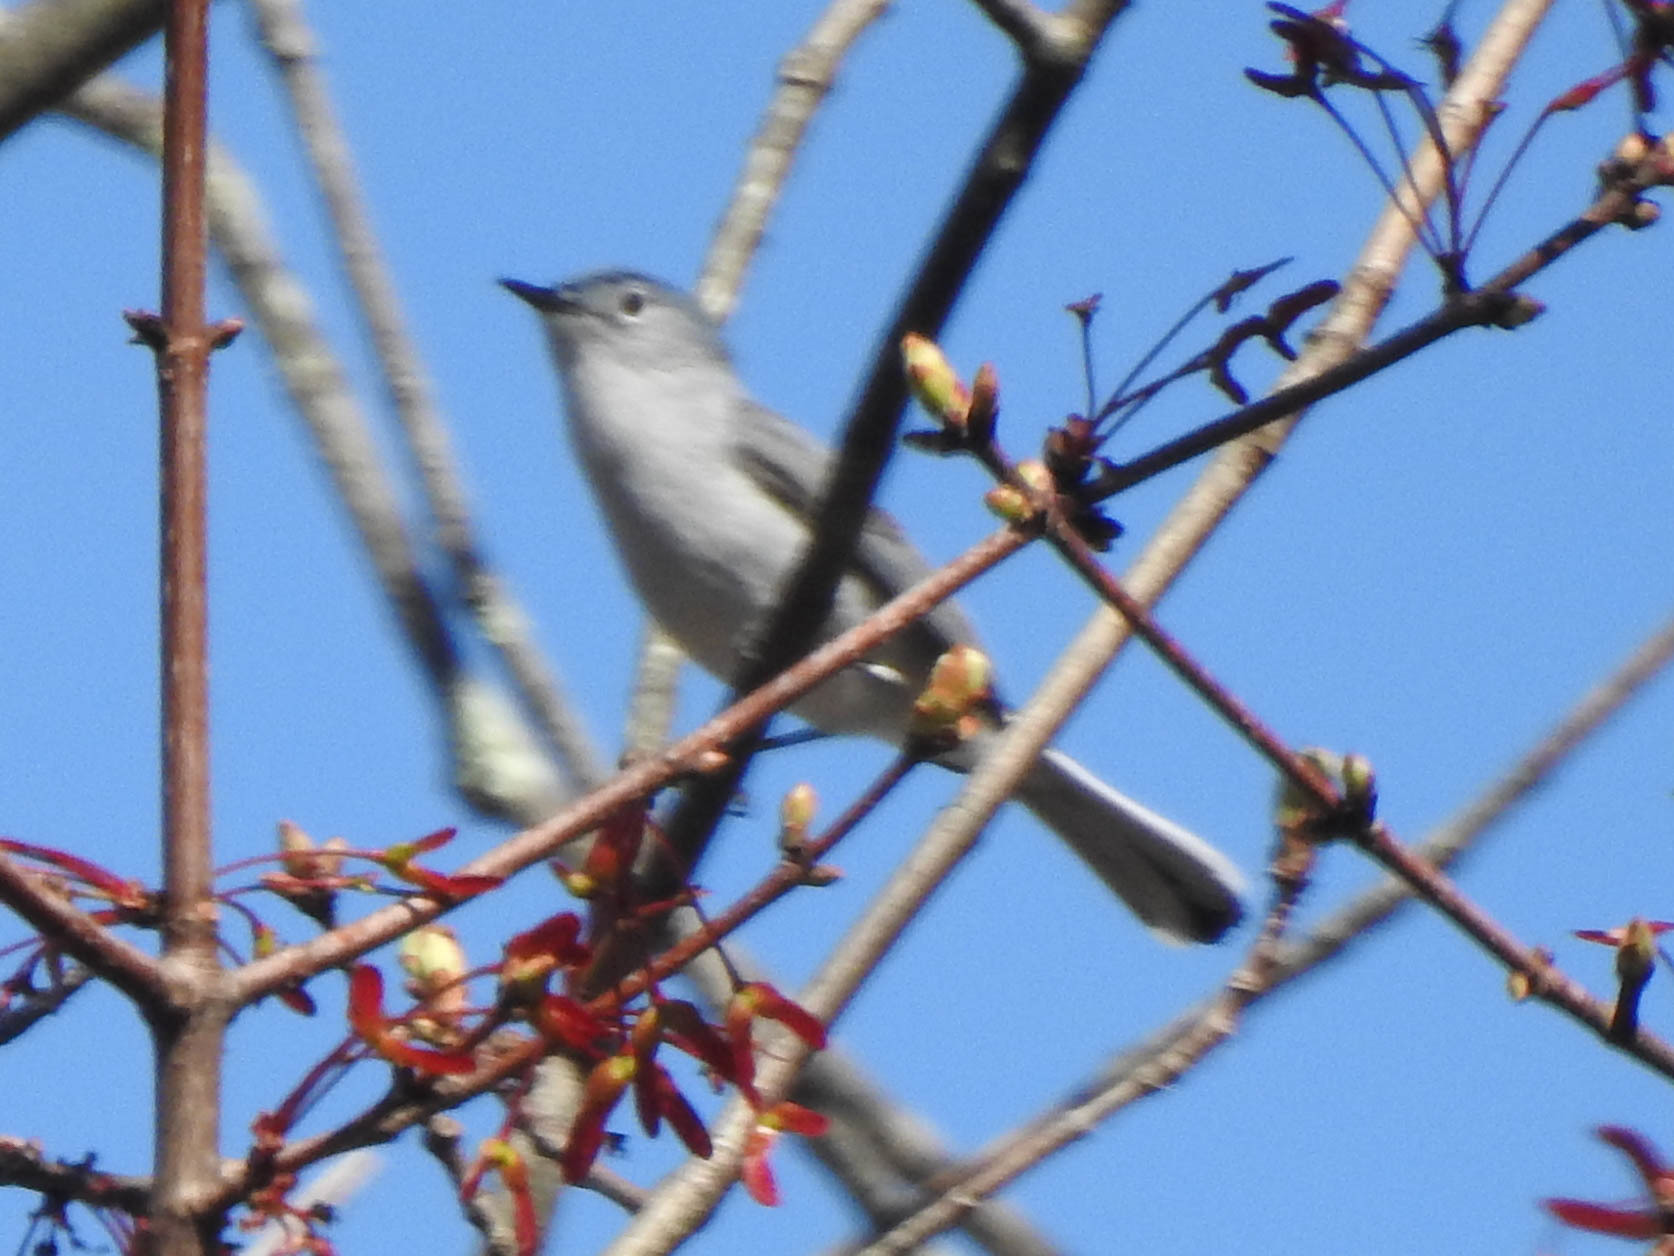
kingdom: Animalia
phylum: Chordata
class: Aves
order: Passeriformes
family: Polioptilidae
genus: Polioptila
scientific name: Polioptila caerulea
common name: Blue-gray gnatcatcher
